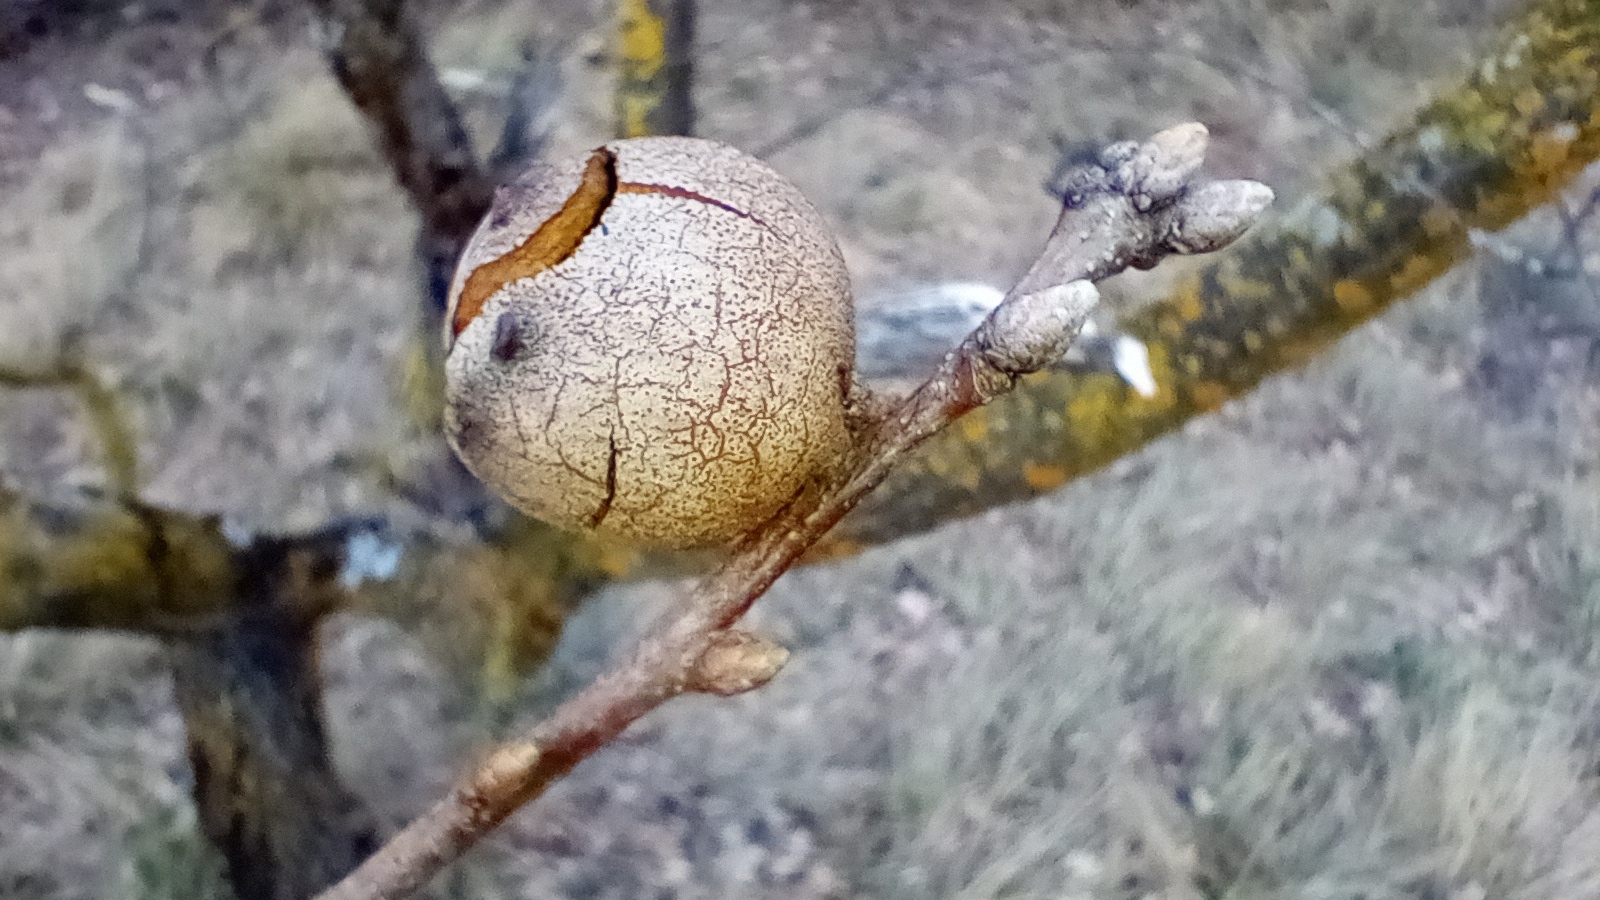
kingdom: Animalia
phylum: Arthropoda
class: Insecta
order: Hymenoptera
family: Cynipidae
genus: Andricus
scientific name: Andricus quercustozae
